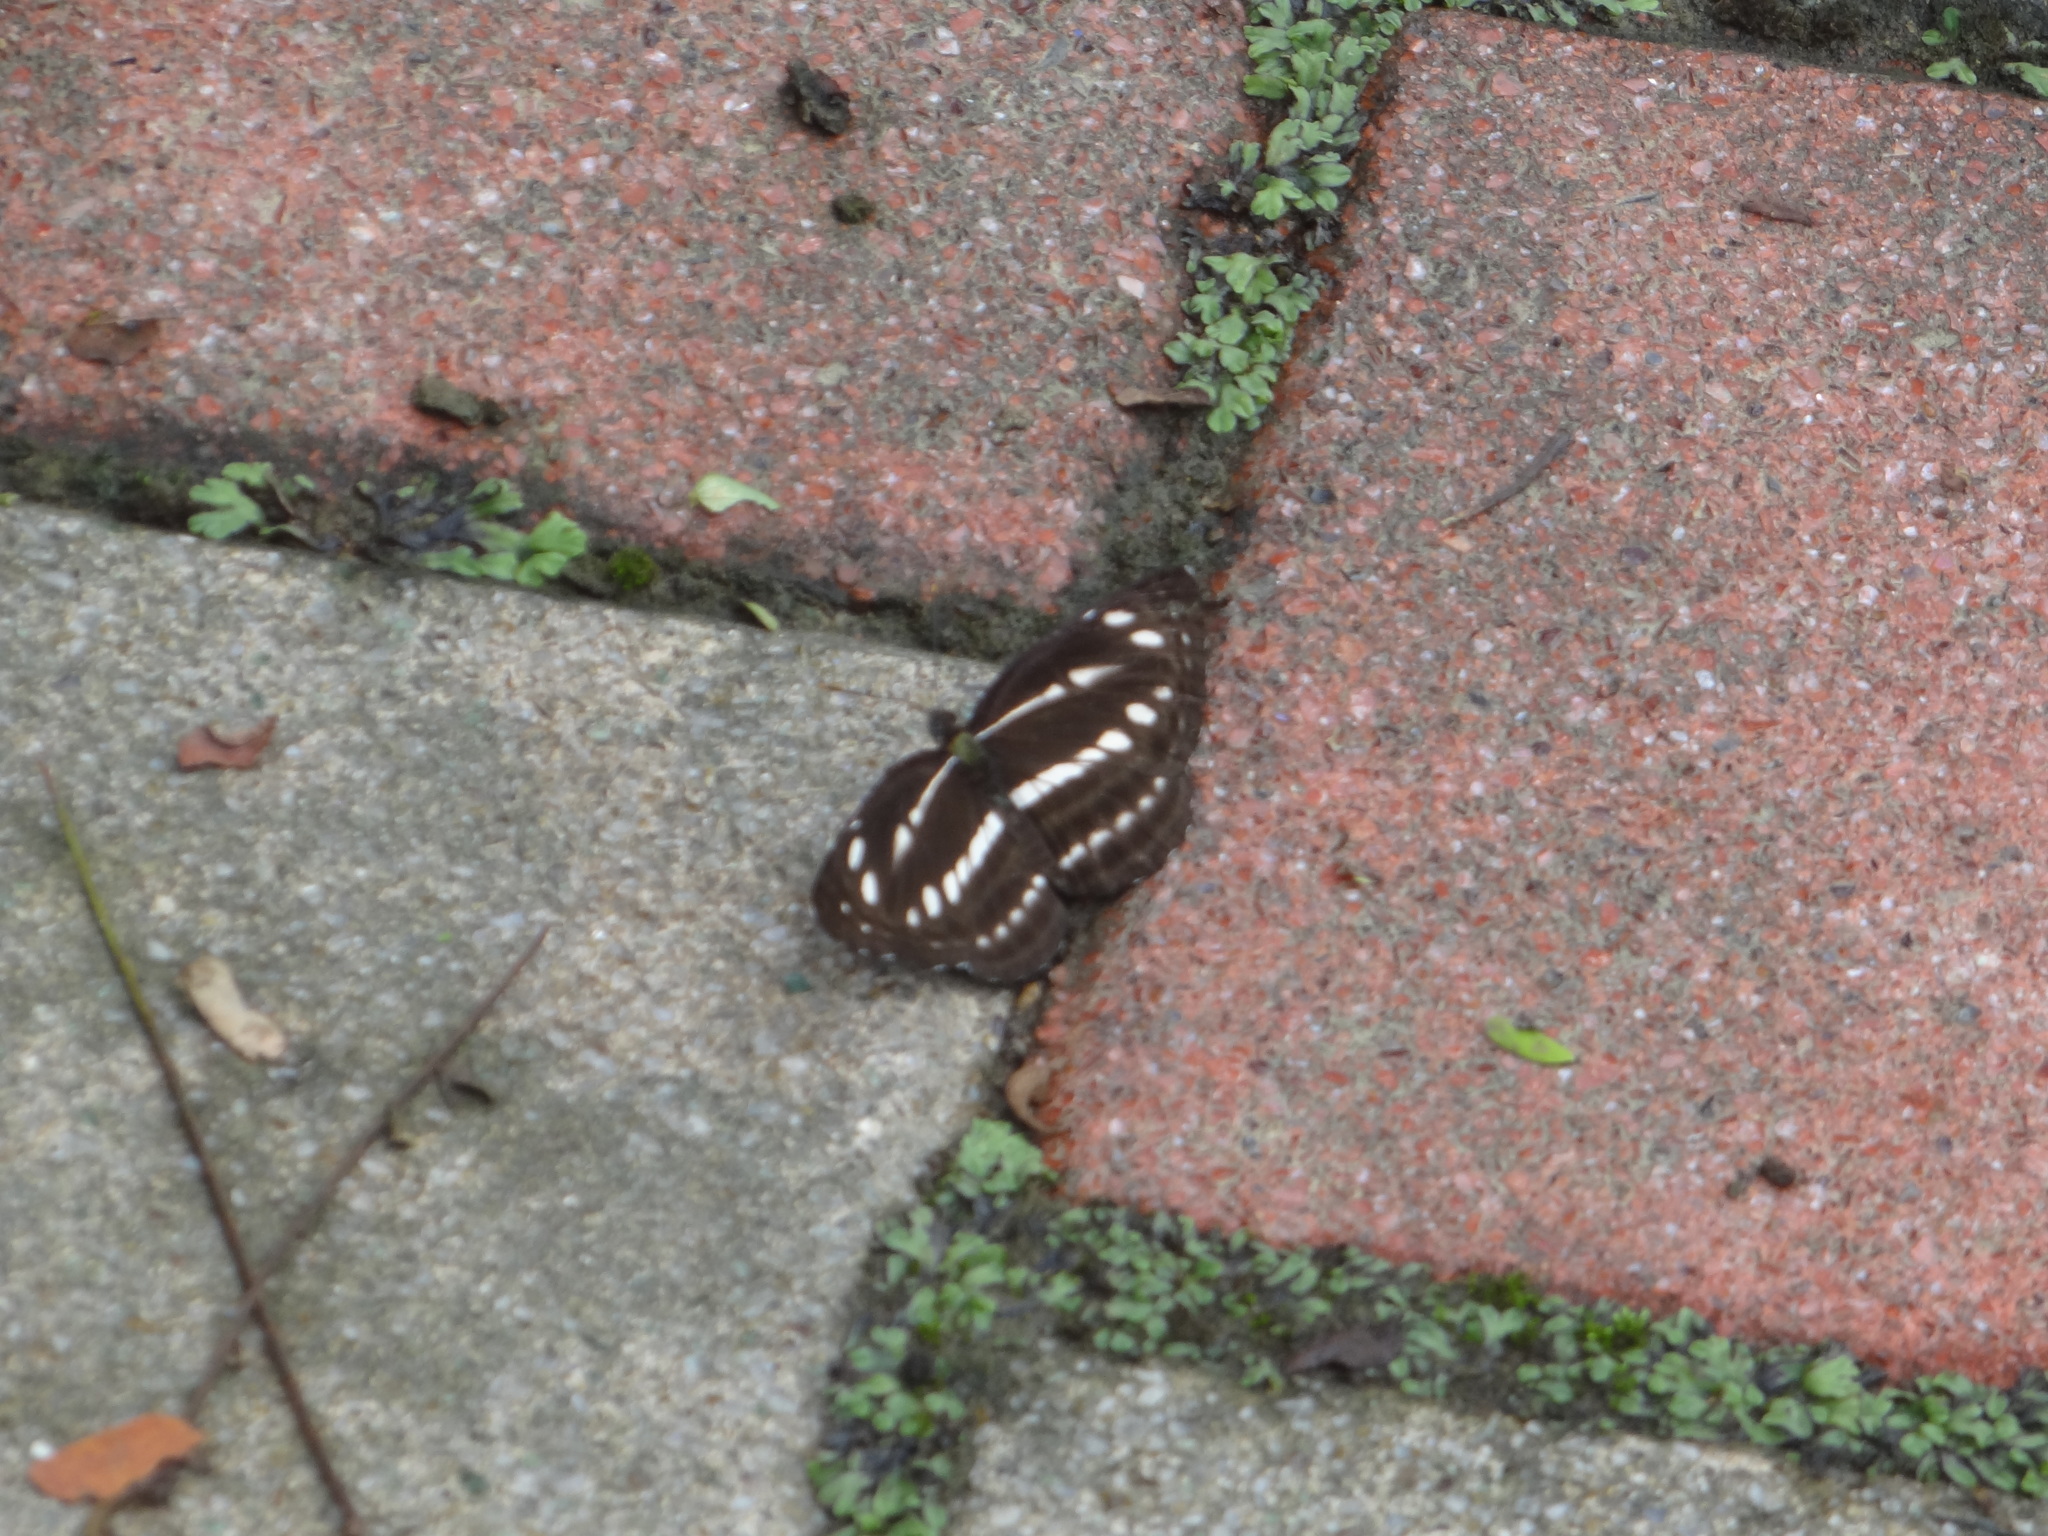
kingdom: Animalia
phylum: Arthropoda
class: Insecta
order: Lepidoptera
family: Nymphalidae
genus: Neptis
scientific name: Neptis nata
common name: Sullied brown sailer
